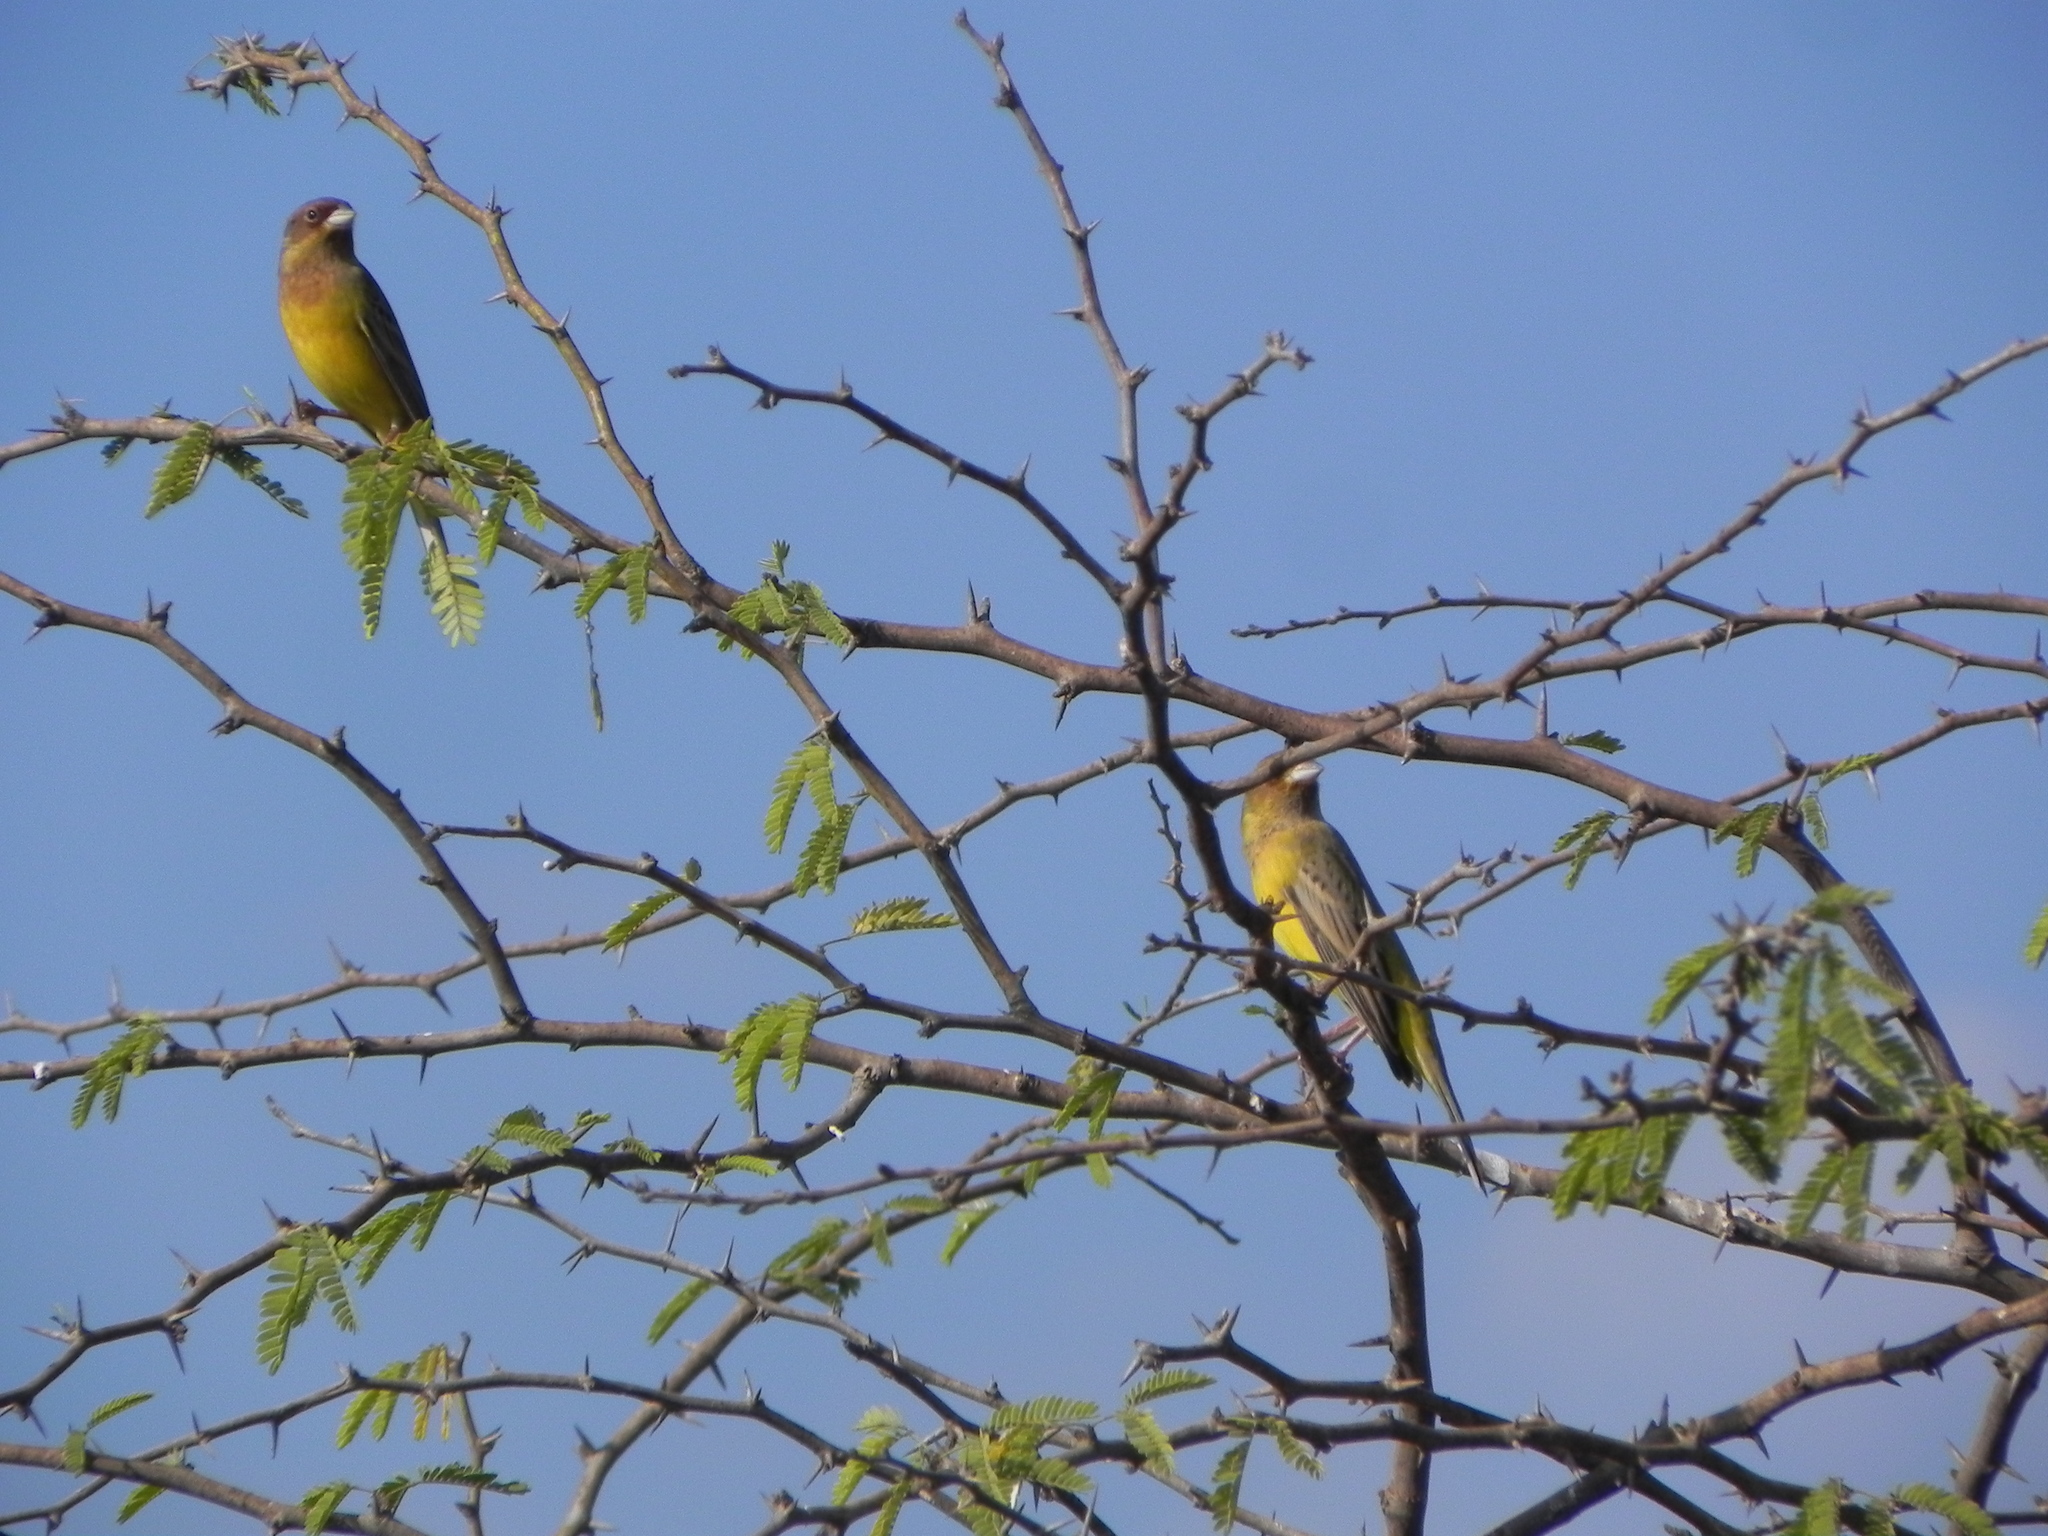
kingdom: Animalia
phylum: Chordata
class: Aves
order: Passeriformes
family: Emberizidae
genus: Emberiza
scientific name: Emberiza bruniceps
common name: Red-headed bunting
